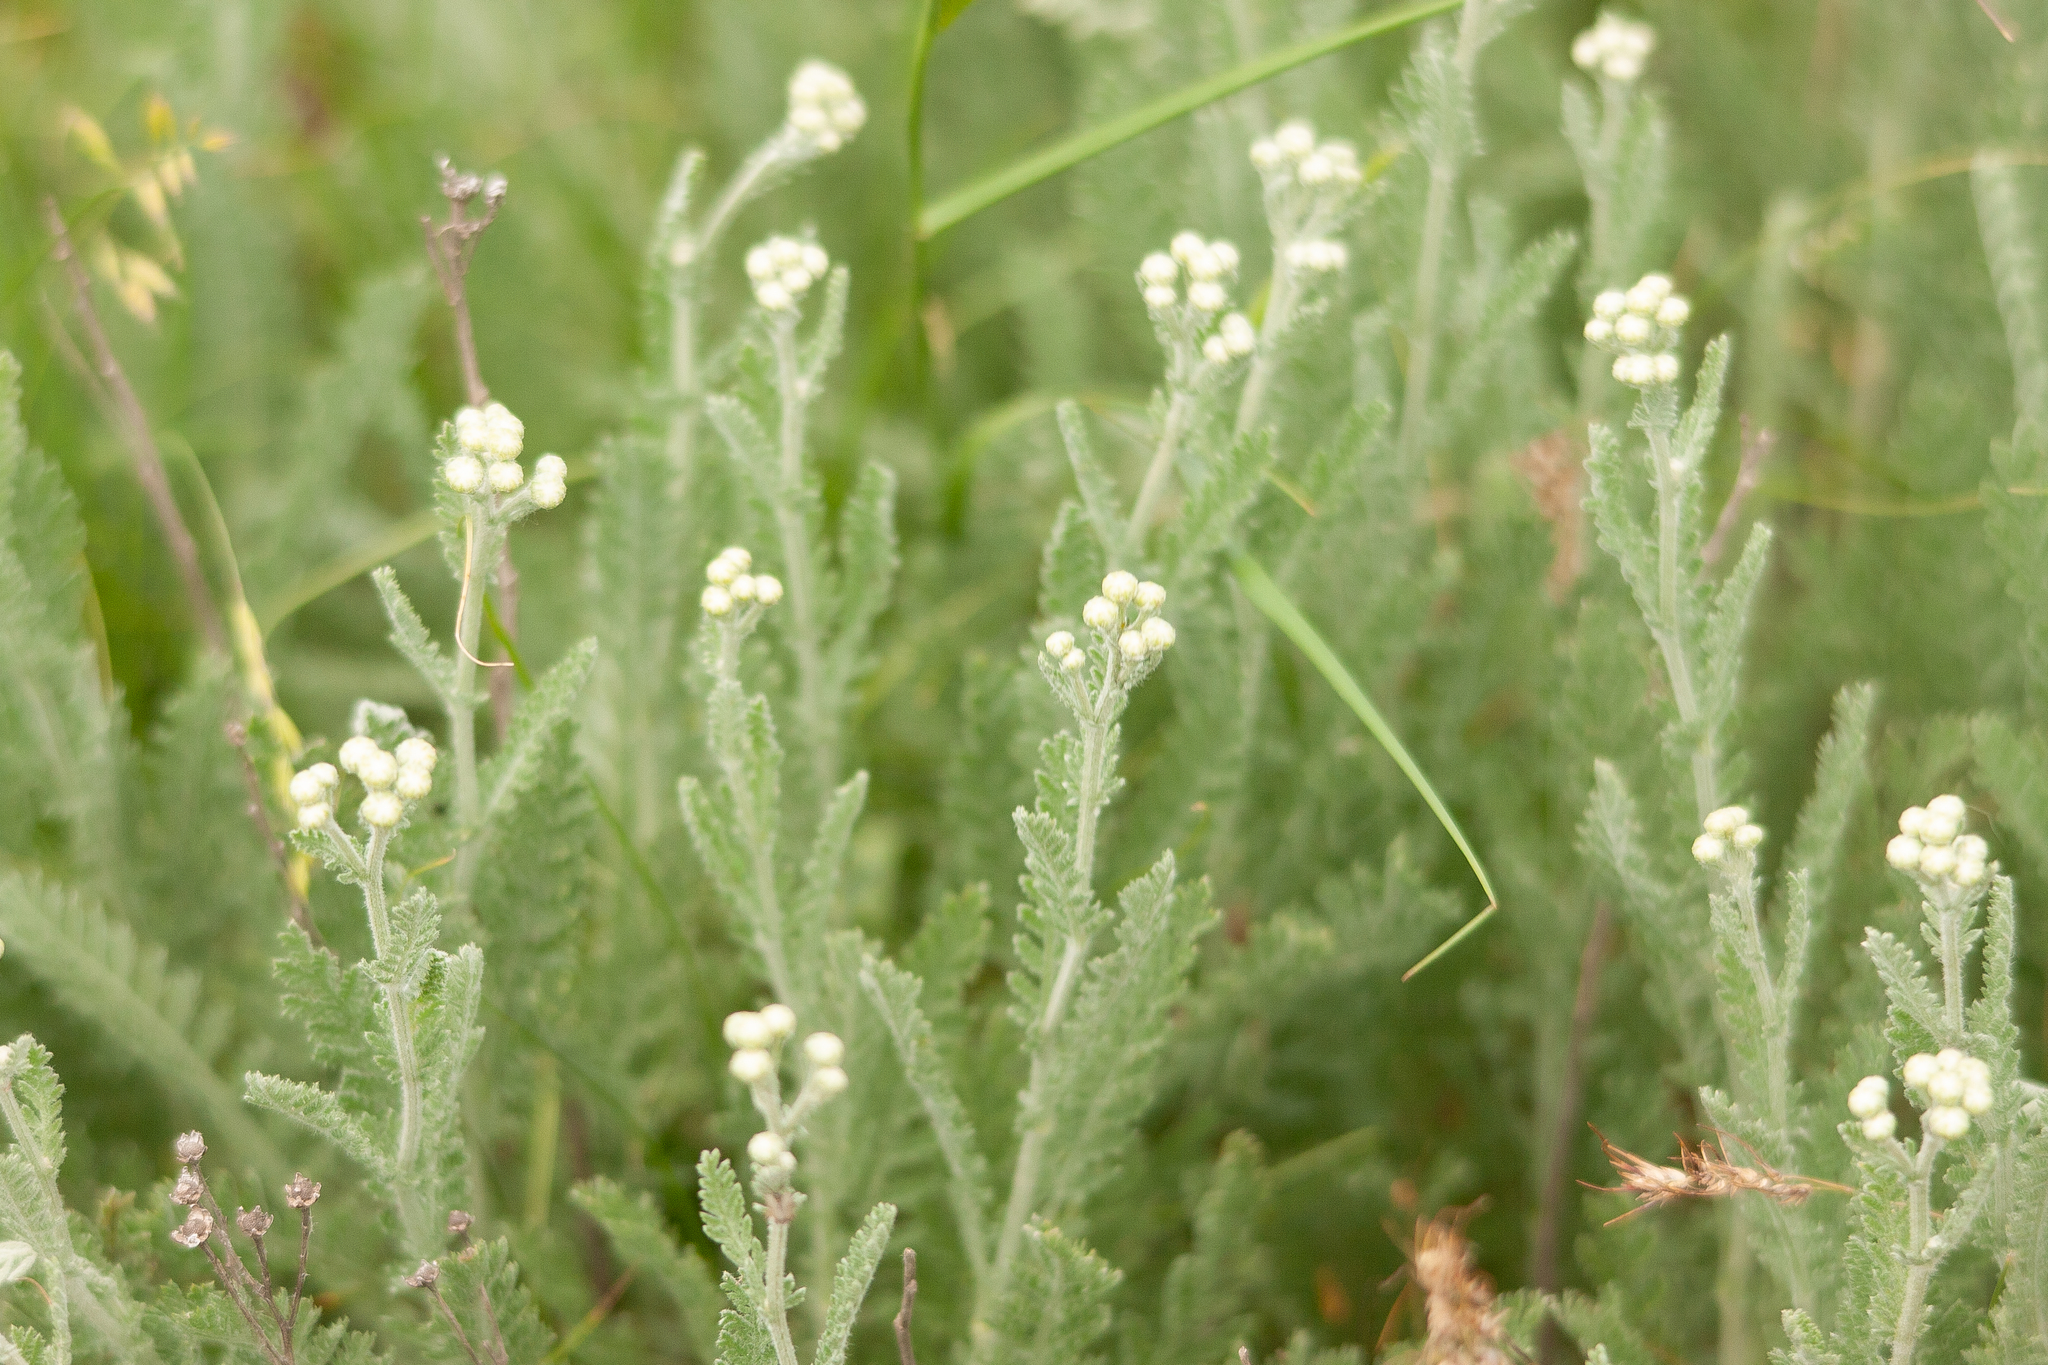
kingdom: Plantae
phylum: Tracheophyta
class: Magnoliopsida
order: Asterales
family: Asteraceae
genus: Tanacetum
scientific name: Tanacetum achilleifolium
